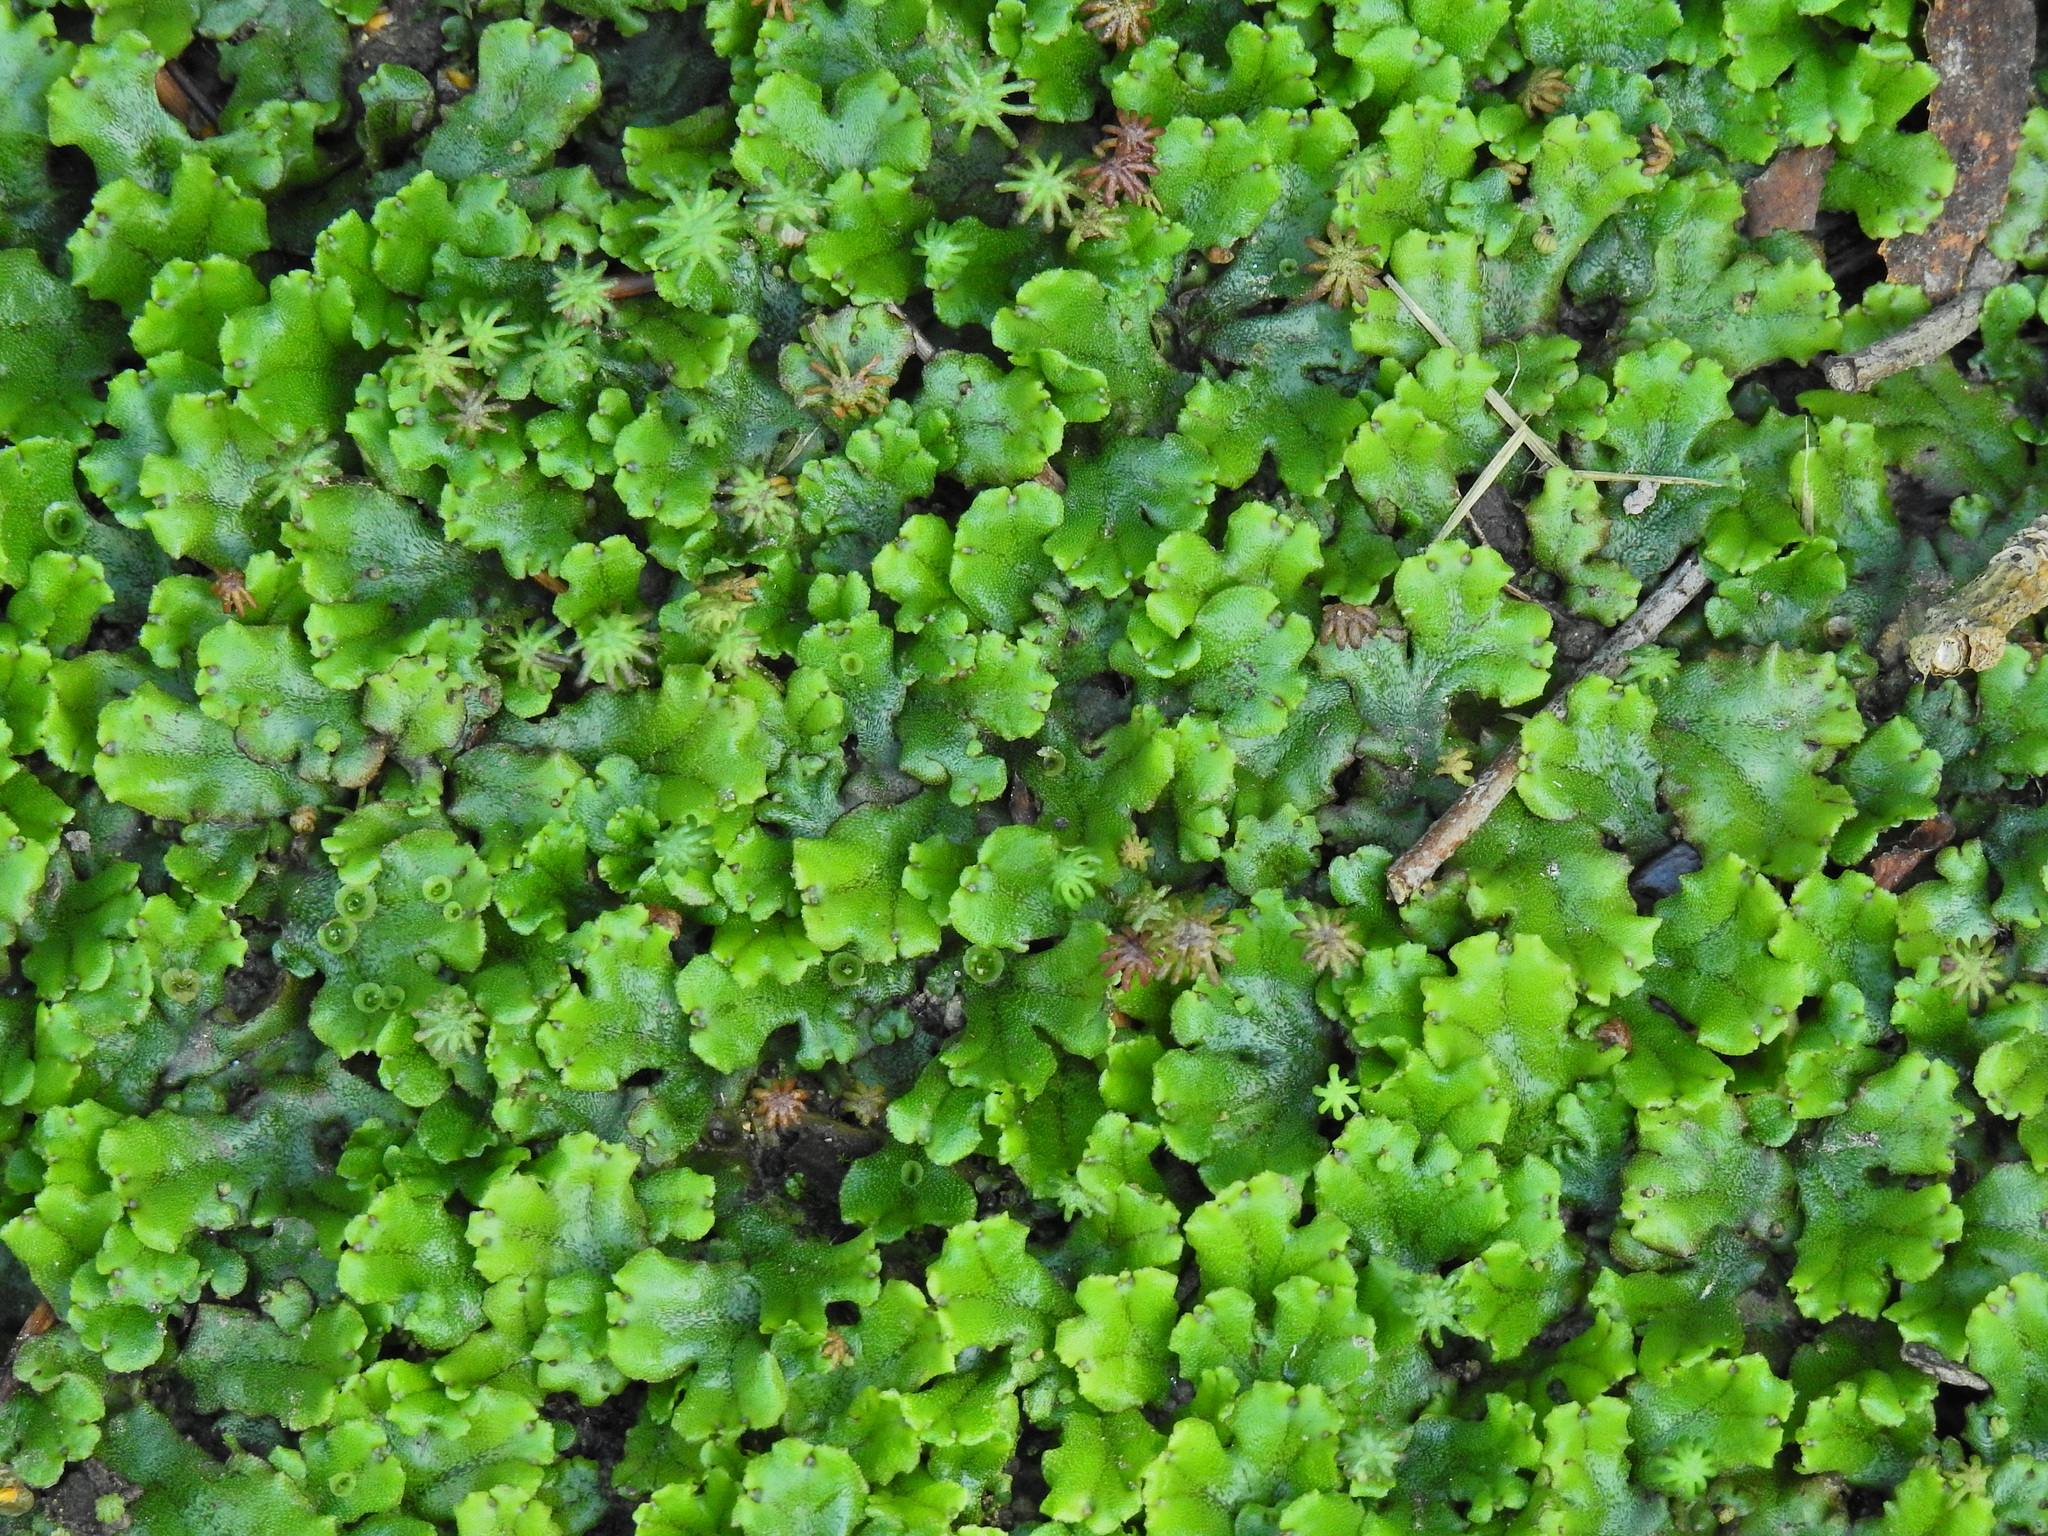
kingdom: Plantae
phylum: Marchantiophyta
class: Marchantiopsida
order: Marchantiales
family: Marchantiaceae
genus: Marchantia
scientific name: Marchantia polymorpha
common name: Common liverwort
